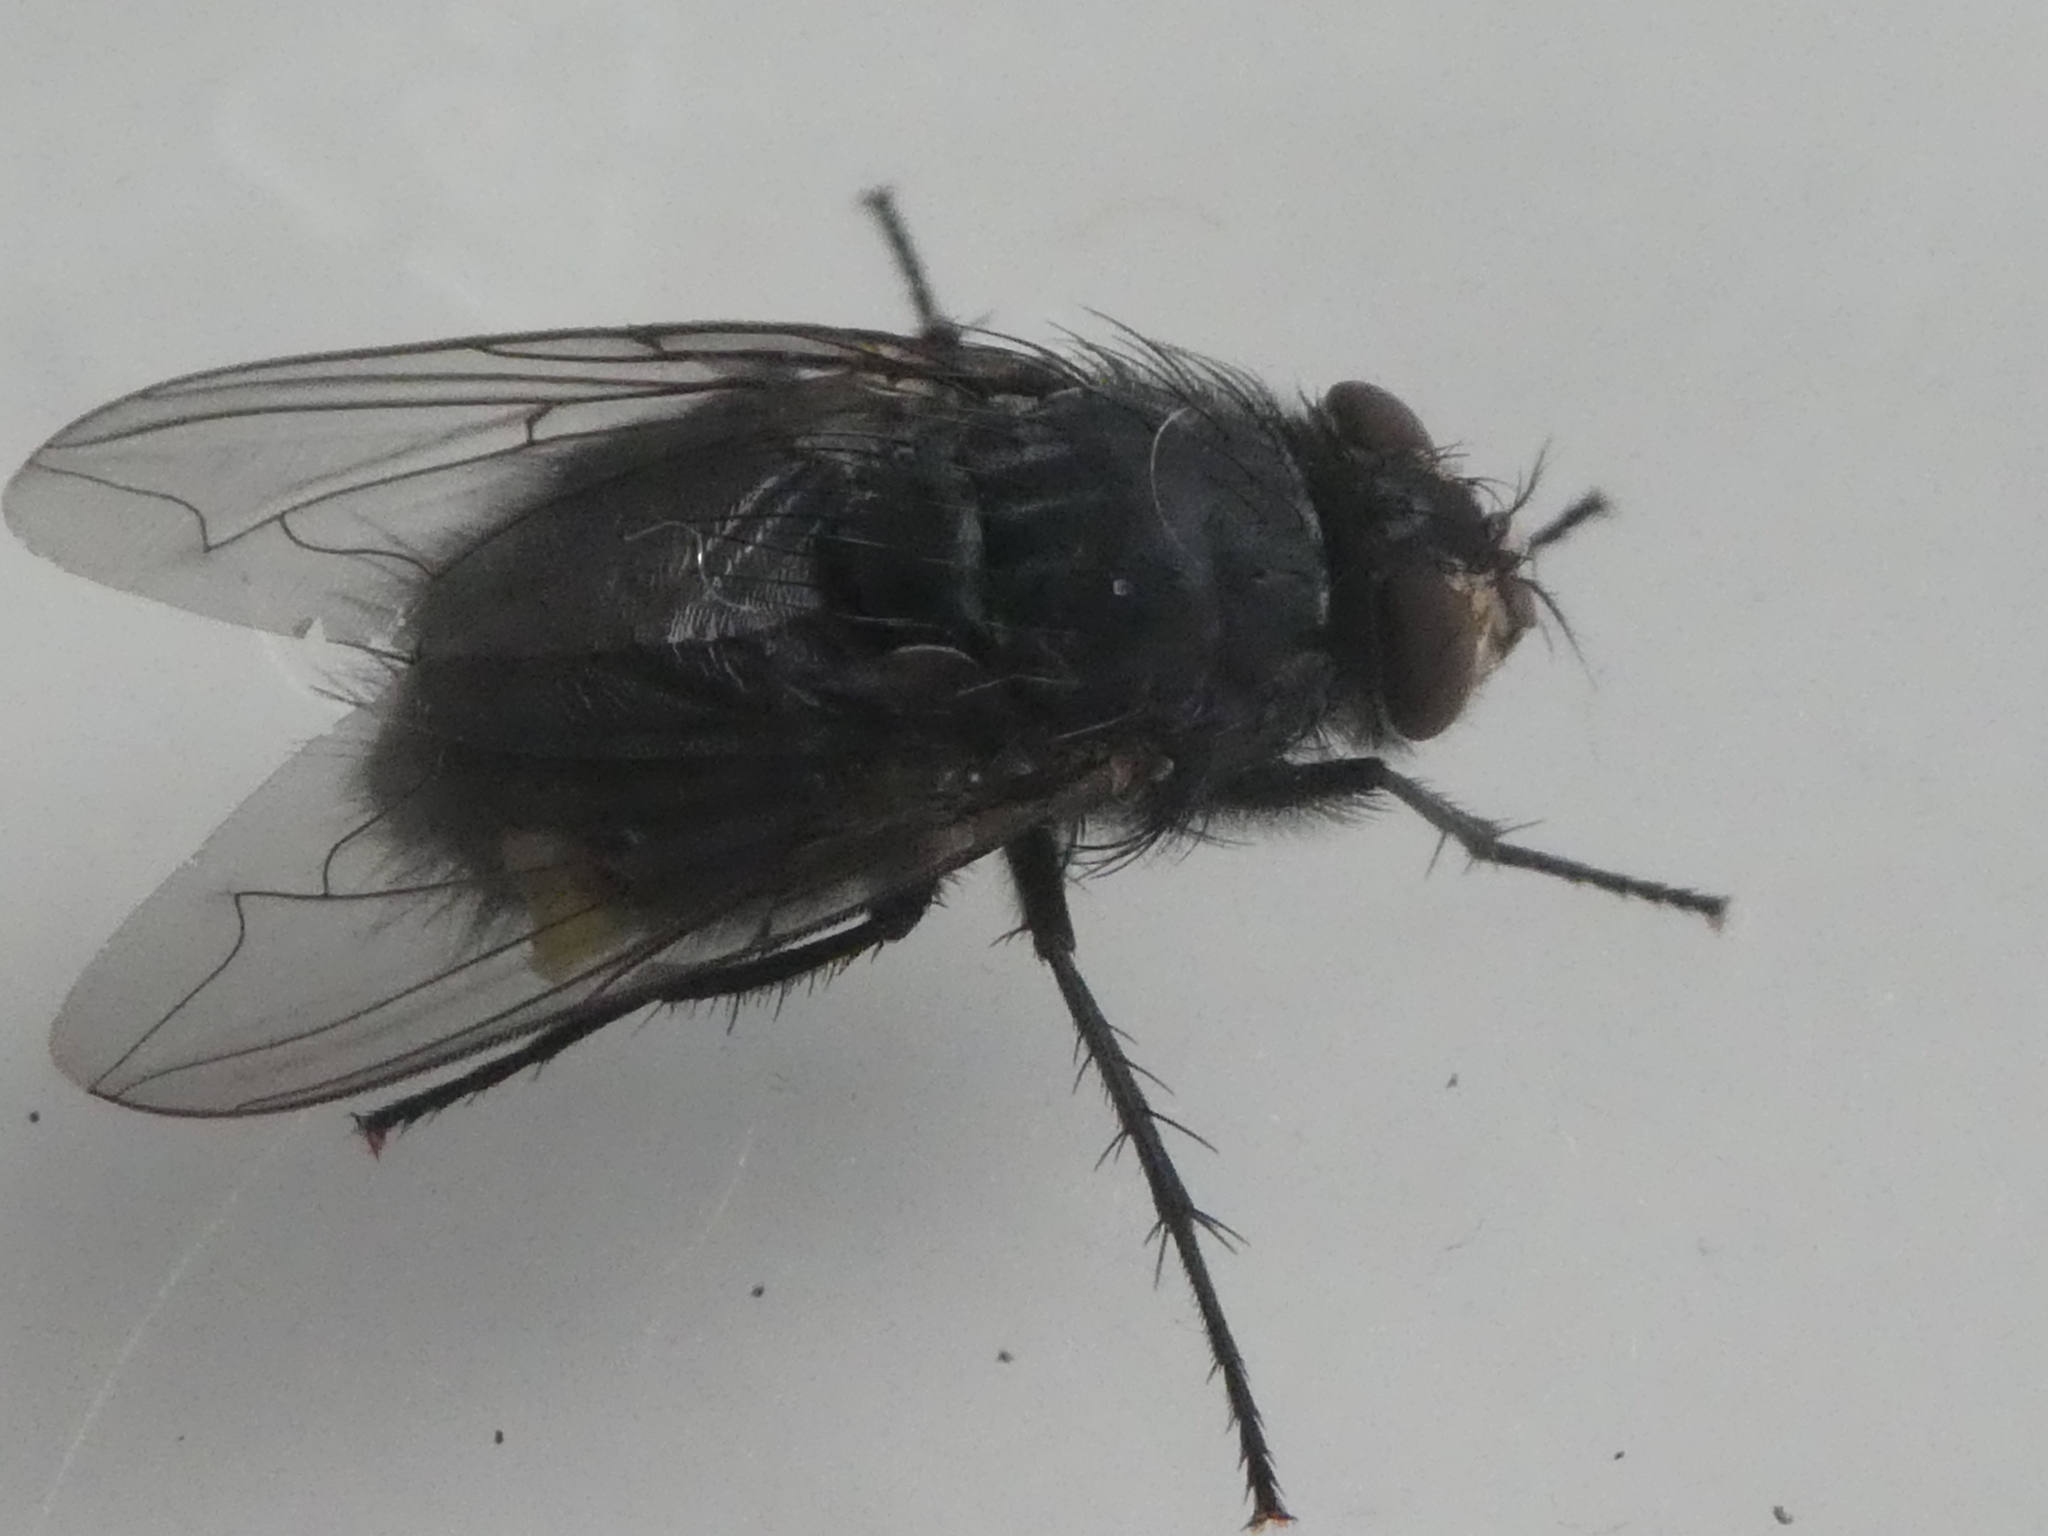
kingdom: Animalia
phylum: Arthropoda
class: Insecta
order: Diptera
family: Calliphoridae
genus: Calliphora
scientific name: Calliphora vicina
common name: Common blow flie
